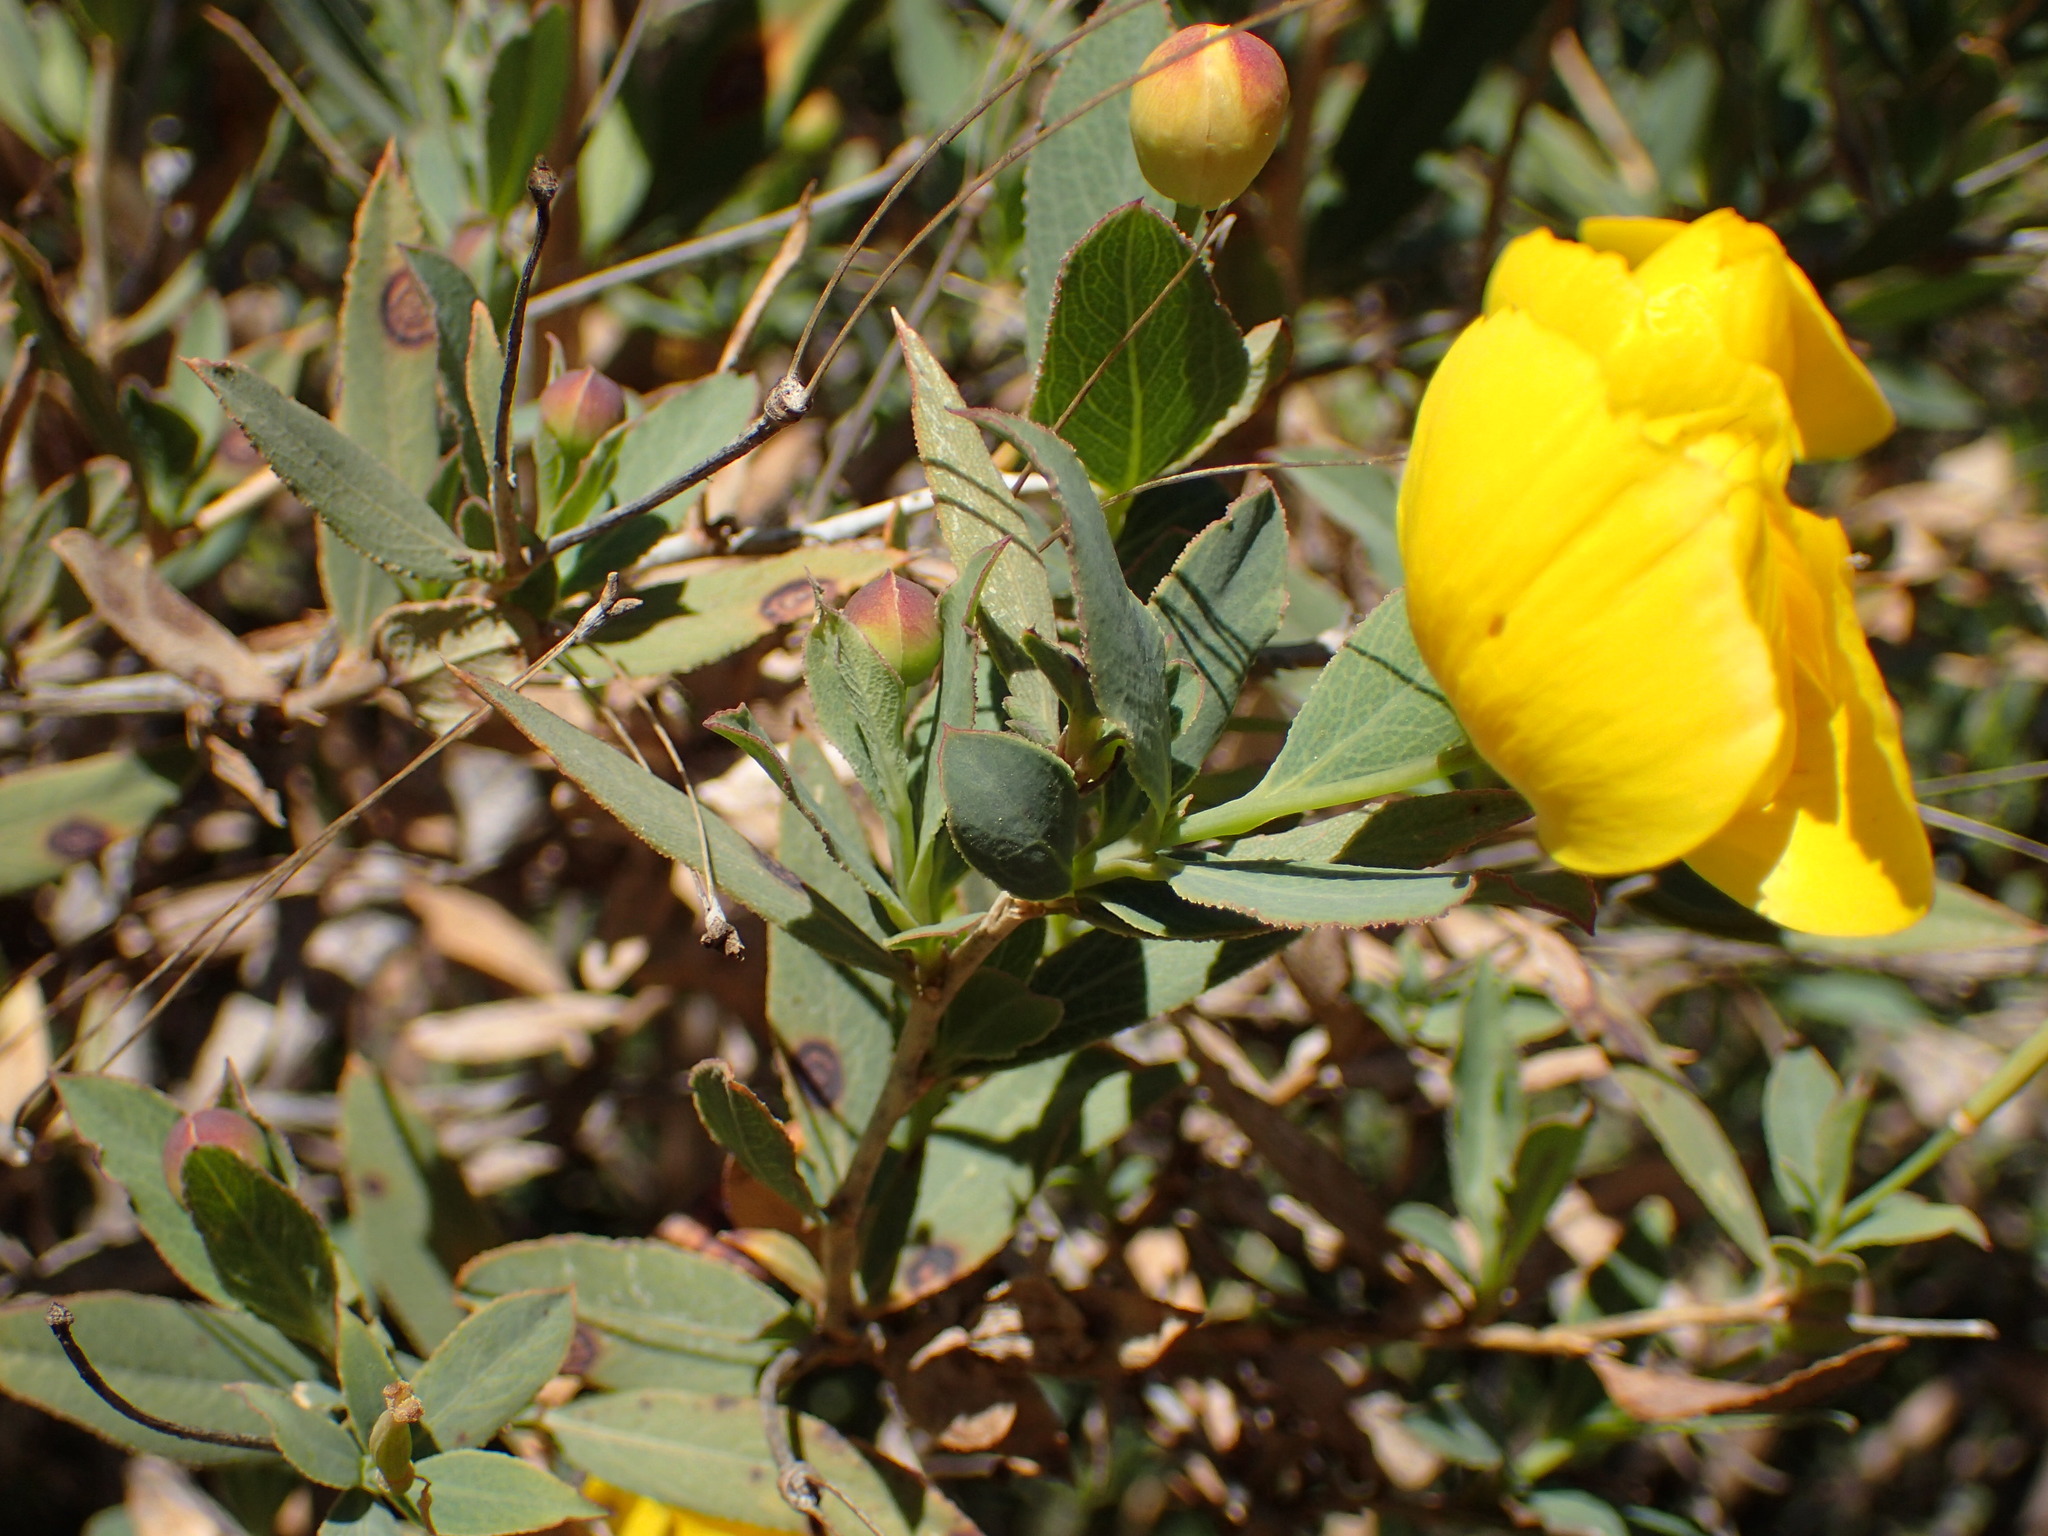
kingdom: Plantae
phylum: Tracheophyta
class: Magnoliopsida
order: Ranunculales
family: Papaveraceae
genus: Dendromecon
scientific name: Dendromecon rigida
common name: Tree poppy
